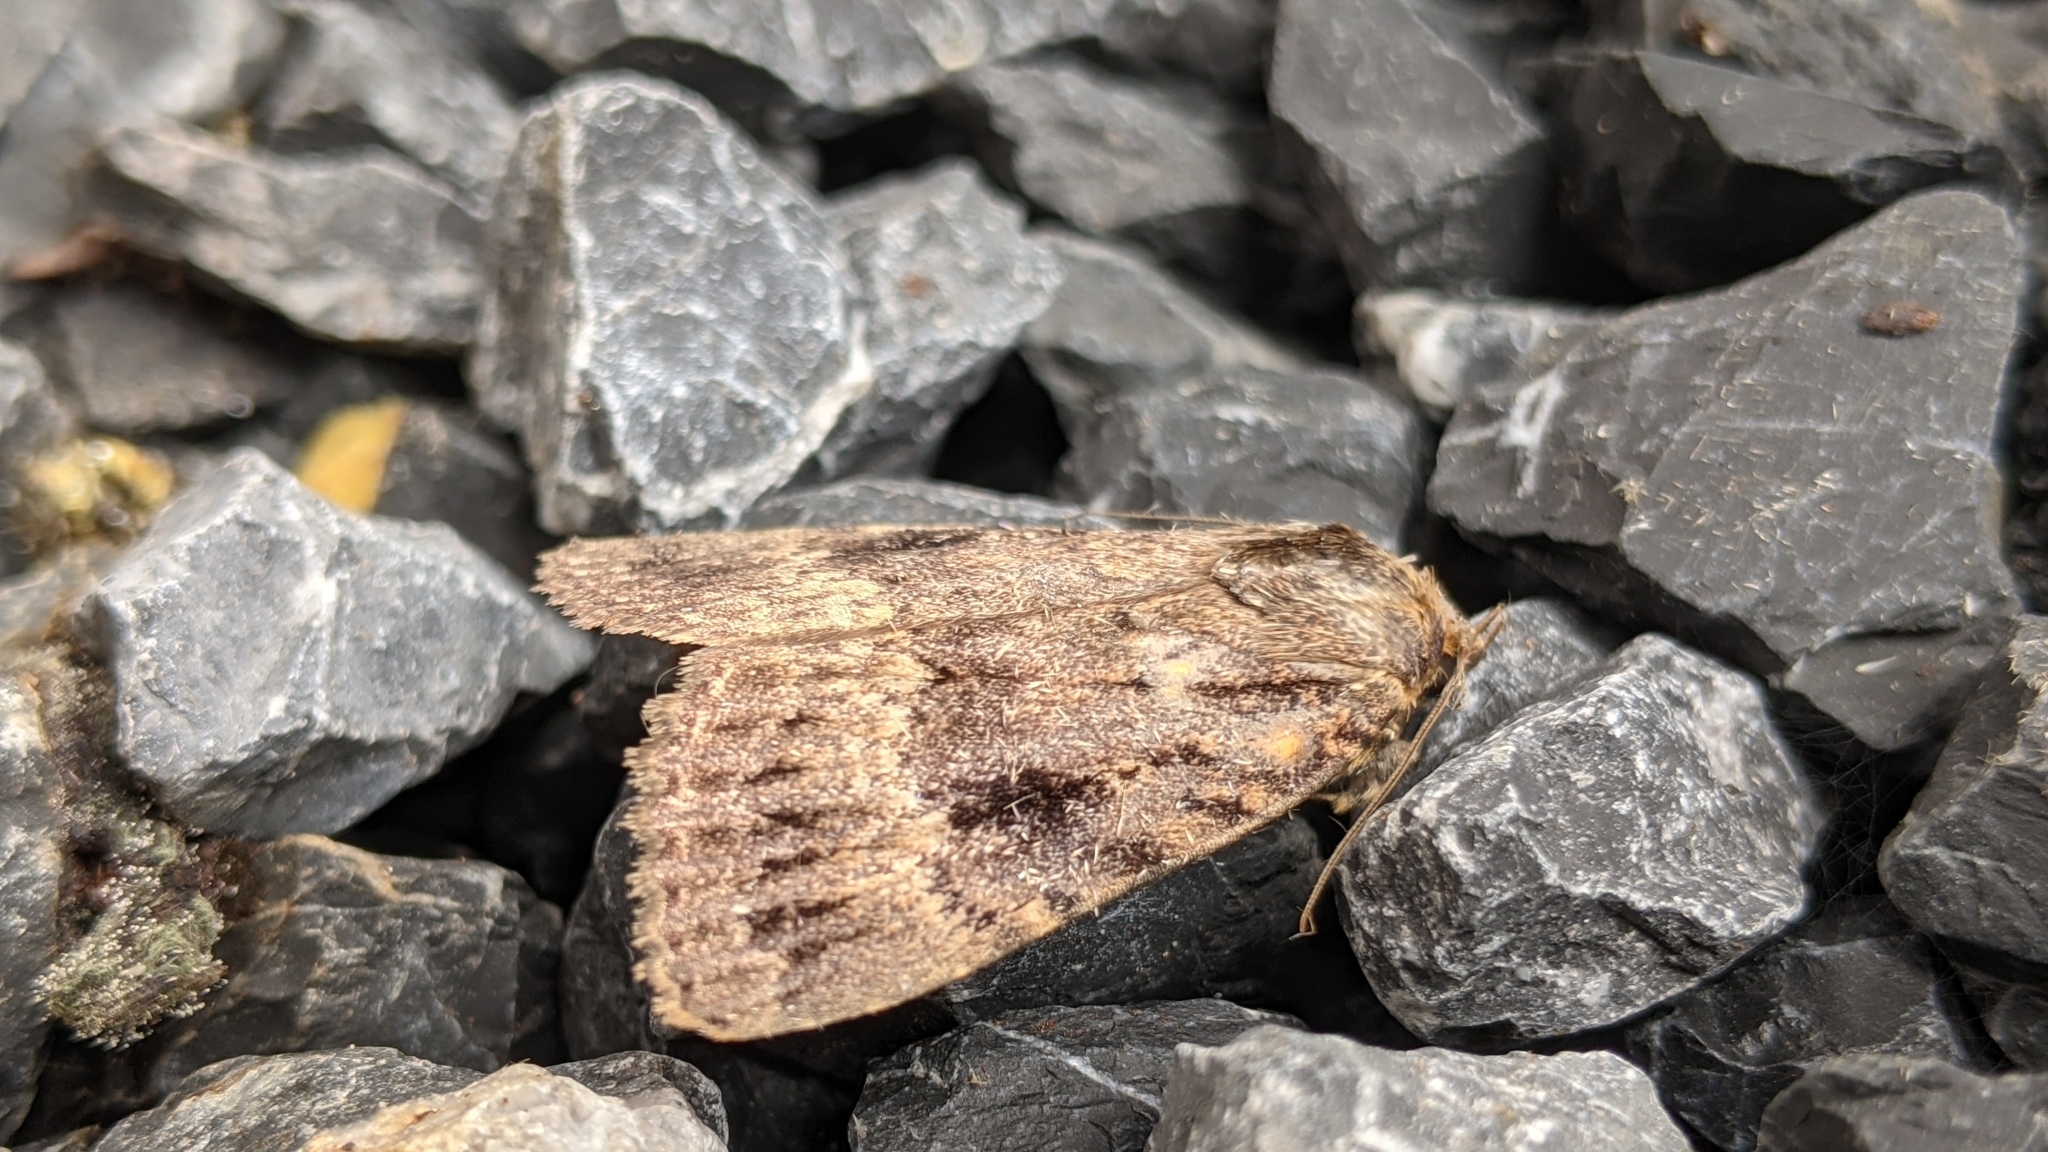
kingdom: Animalia
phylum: Arthropoda
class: Insecta
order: Lepidoptera
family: Noctuidae
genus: Amphipyra
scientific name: Amphipyra pyramidea
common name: Copper underwing
